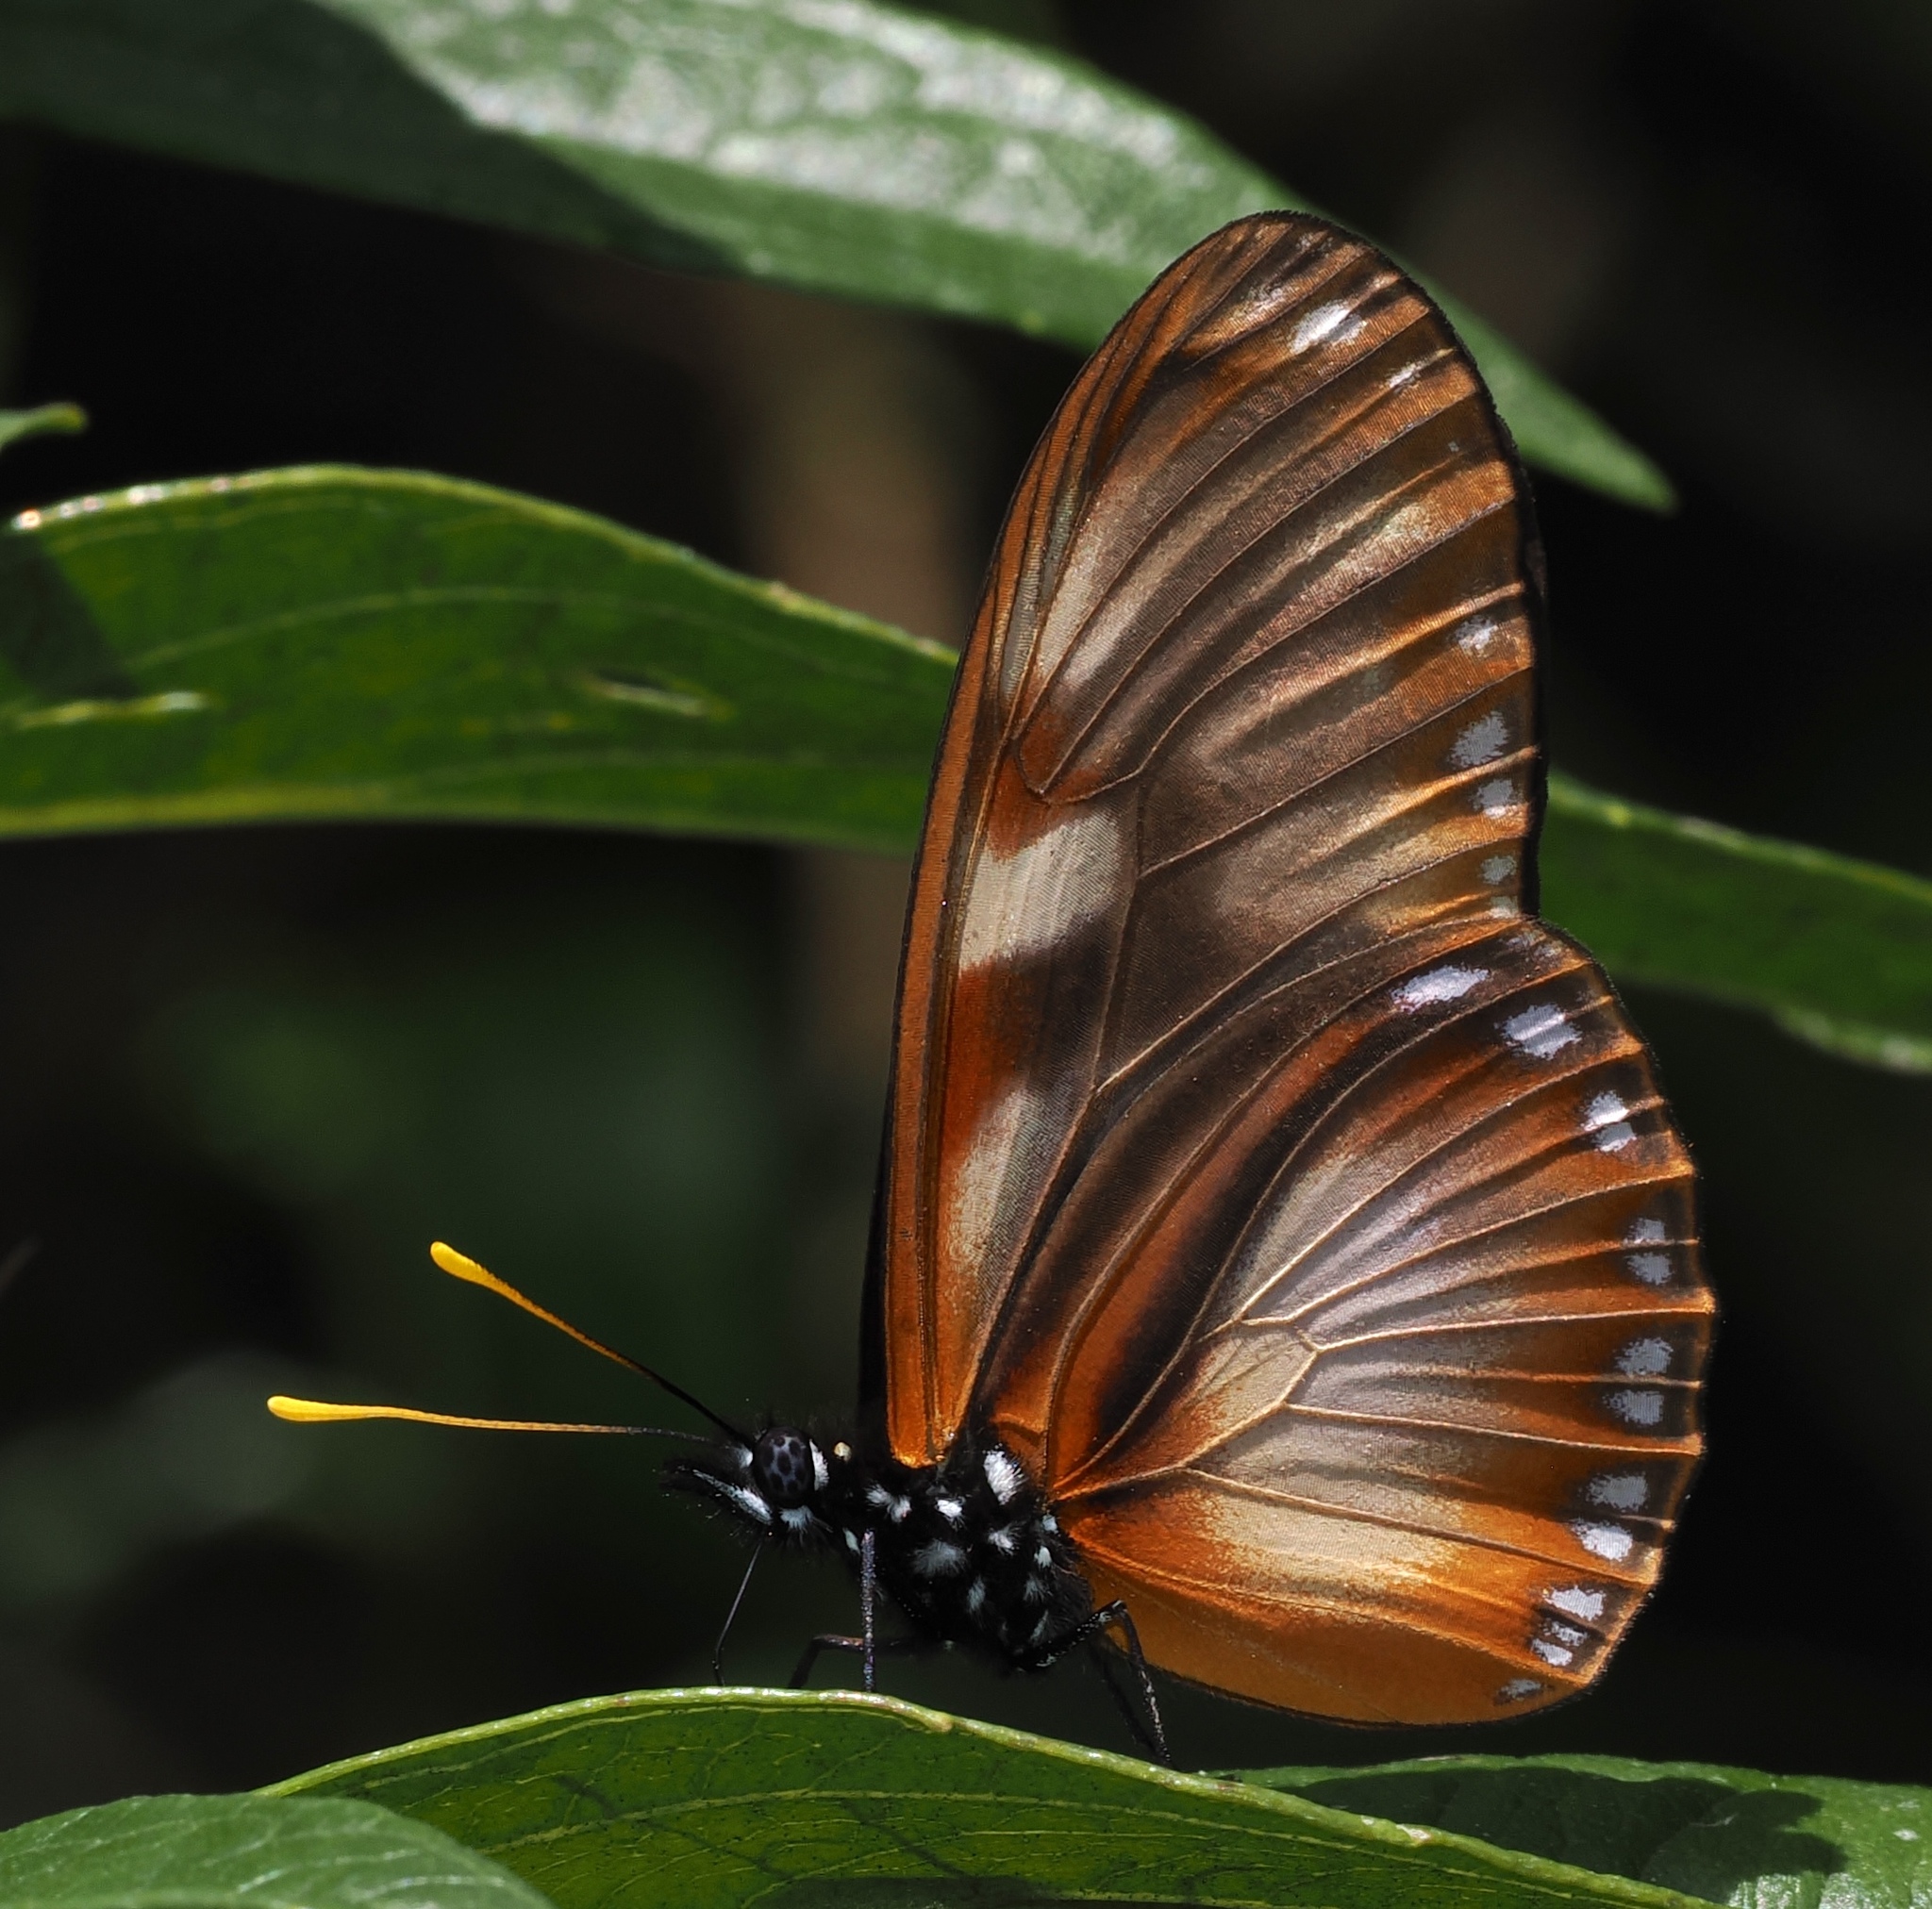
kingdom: Animalia
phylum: Arthropoda
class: Insecta
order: Lepidoptera
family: Nymphalidae
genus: Eueides
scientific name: Eueides procula
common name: Nonpassionate heliconian
